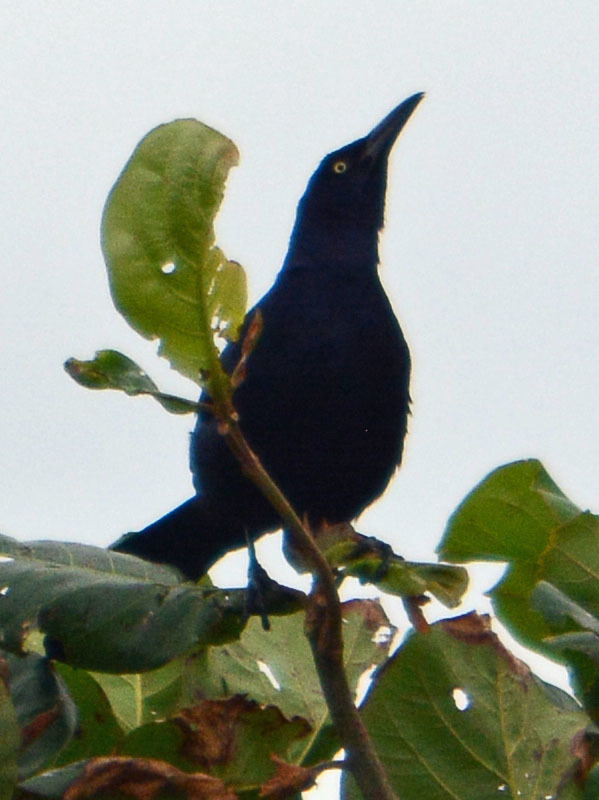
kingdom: Animalia
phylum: Chordata
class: Aves
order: Passeriformes
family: Icteridae
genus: Quiscalus
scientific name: Quiscalus mexicanus
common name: Great-tailed grackle
